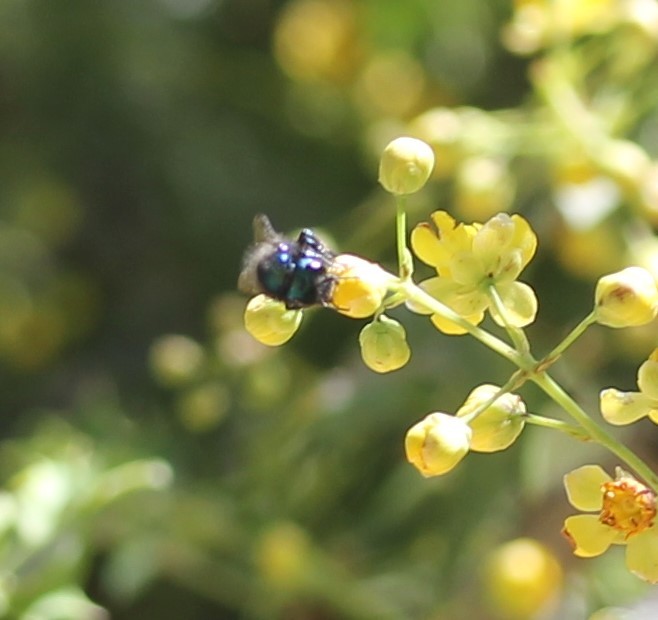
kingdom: Animalia
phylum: Arthropoda
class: Insecta
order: Hymenoptera
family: Megachilidae
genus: Osmia
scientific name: Osmia ribifloris
